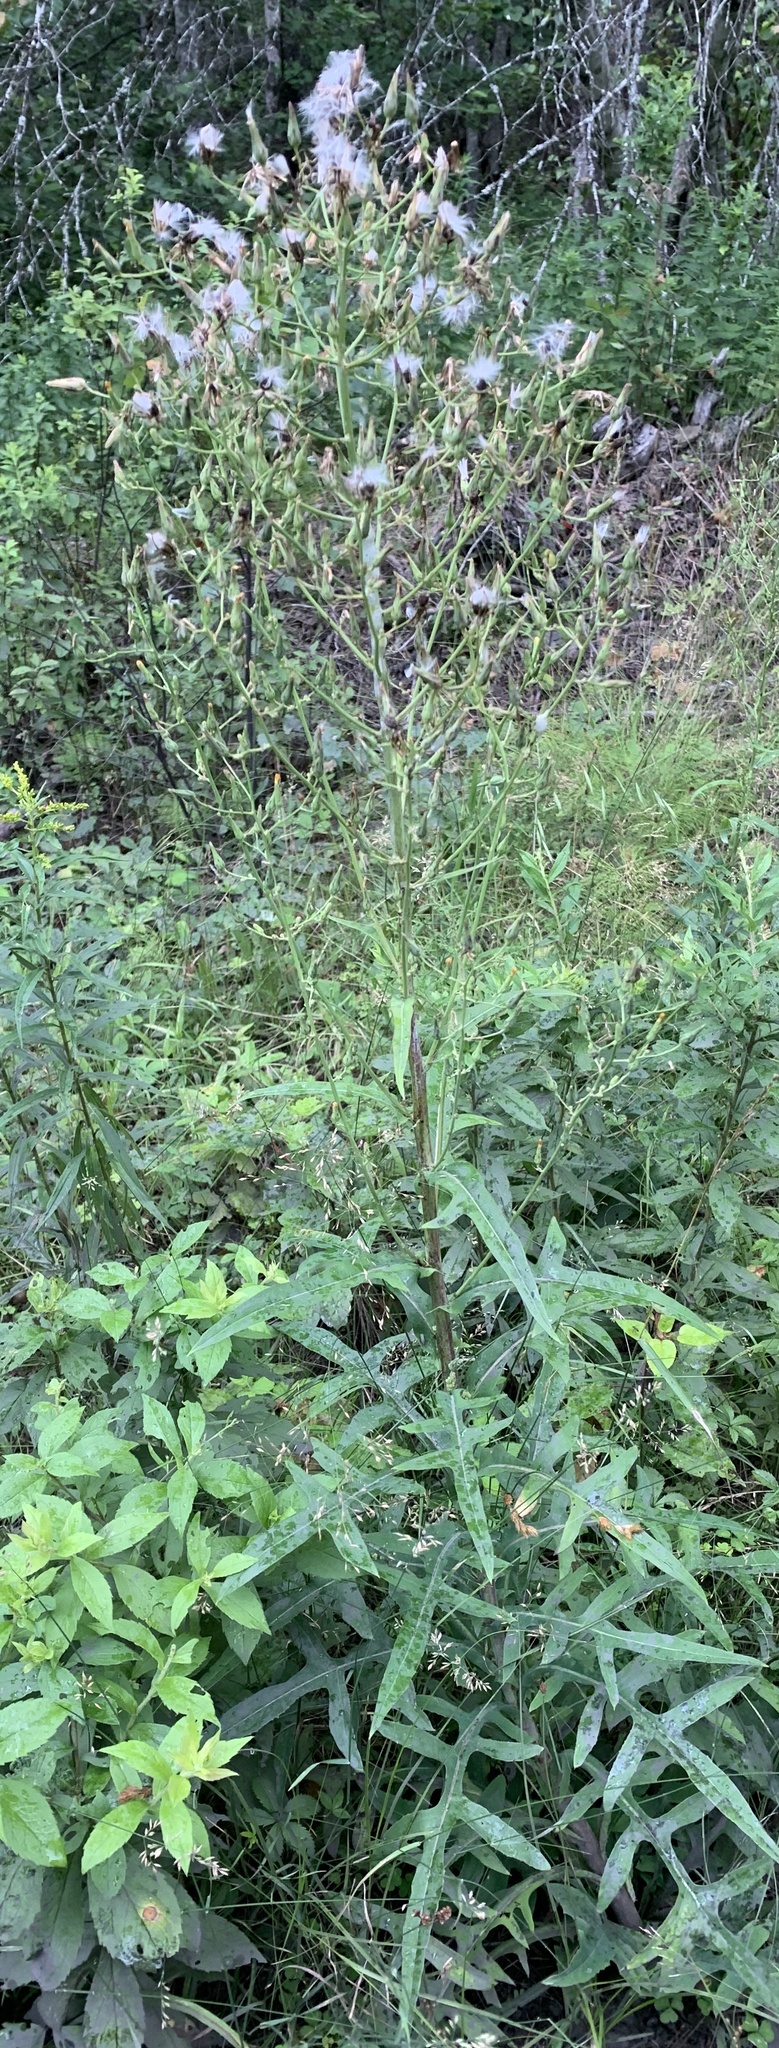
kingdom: Plantae
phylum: Tracheophyta
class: Magnoliopsida
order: Asterales
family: Asteraceae
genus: Lactuca
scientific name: Lactuca biennis
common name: Blue wood lettuce
